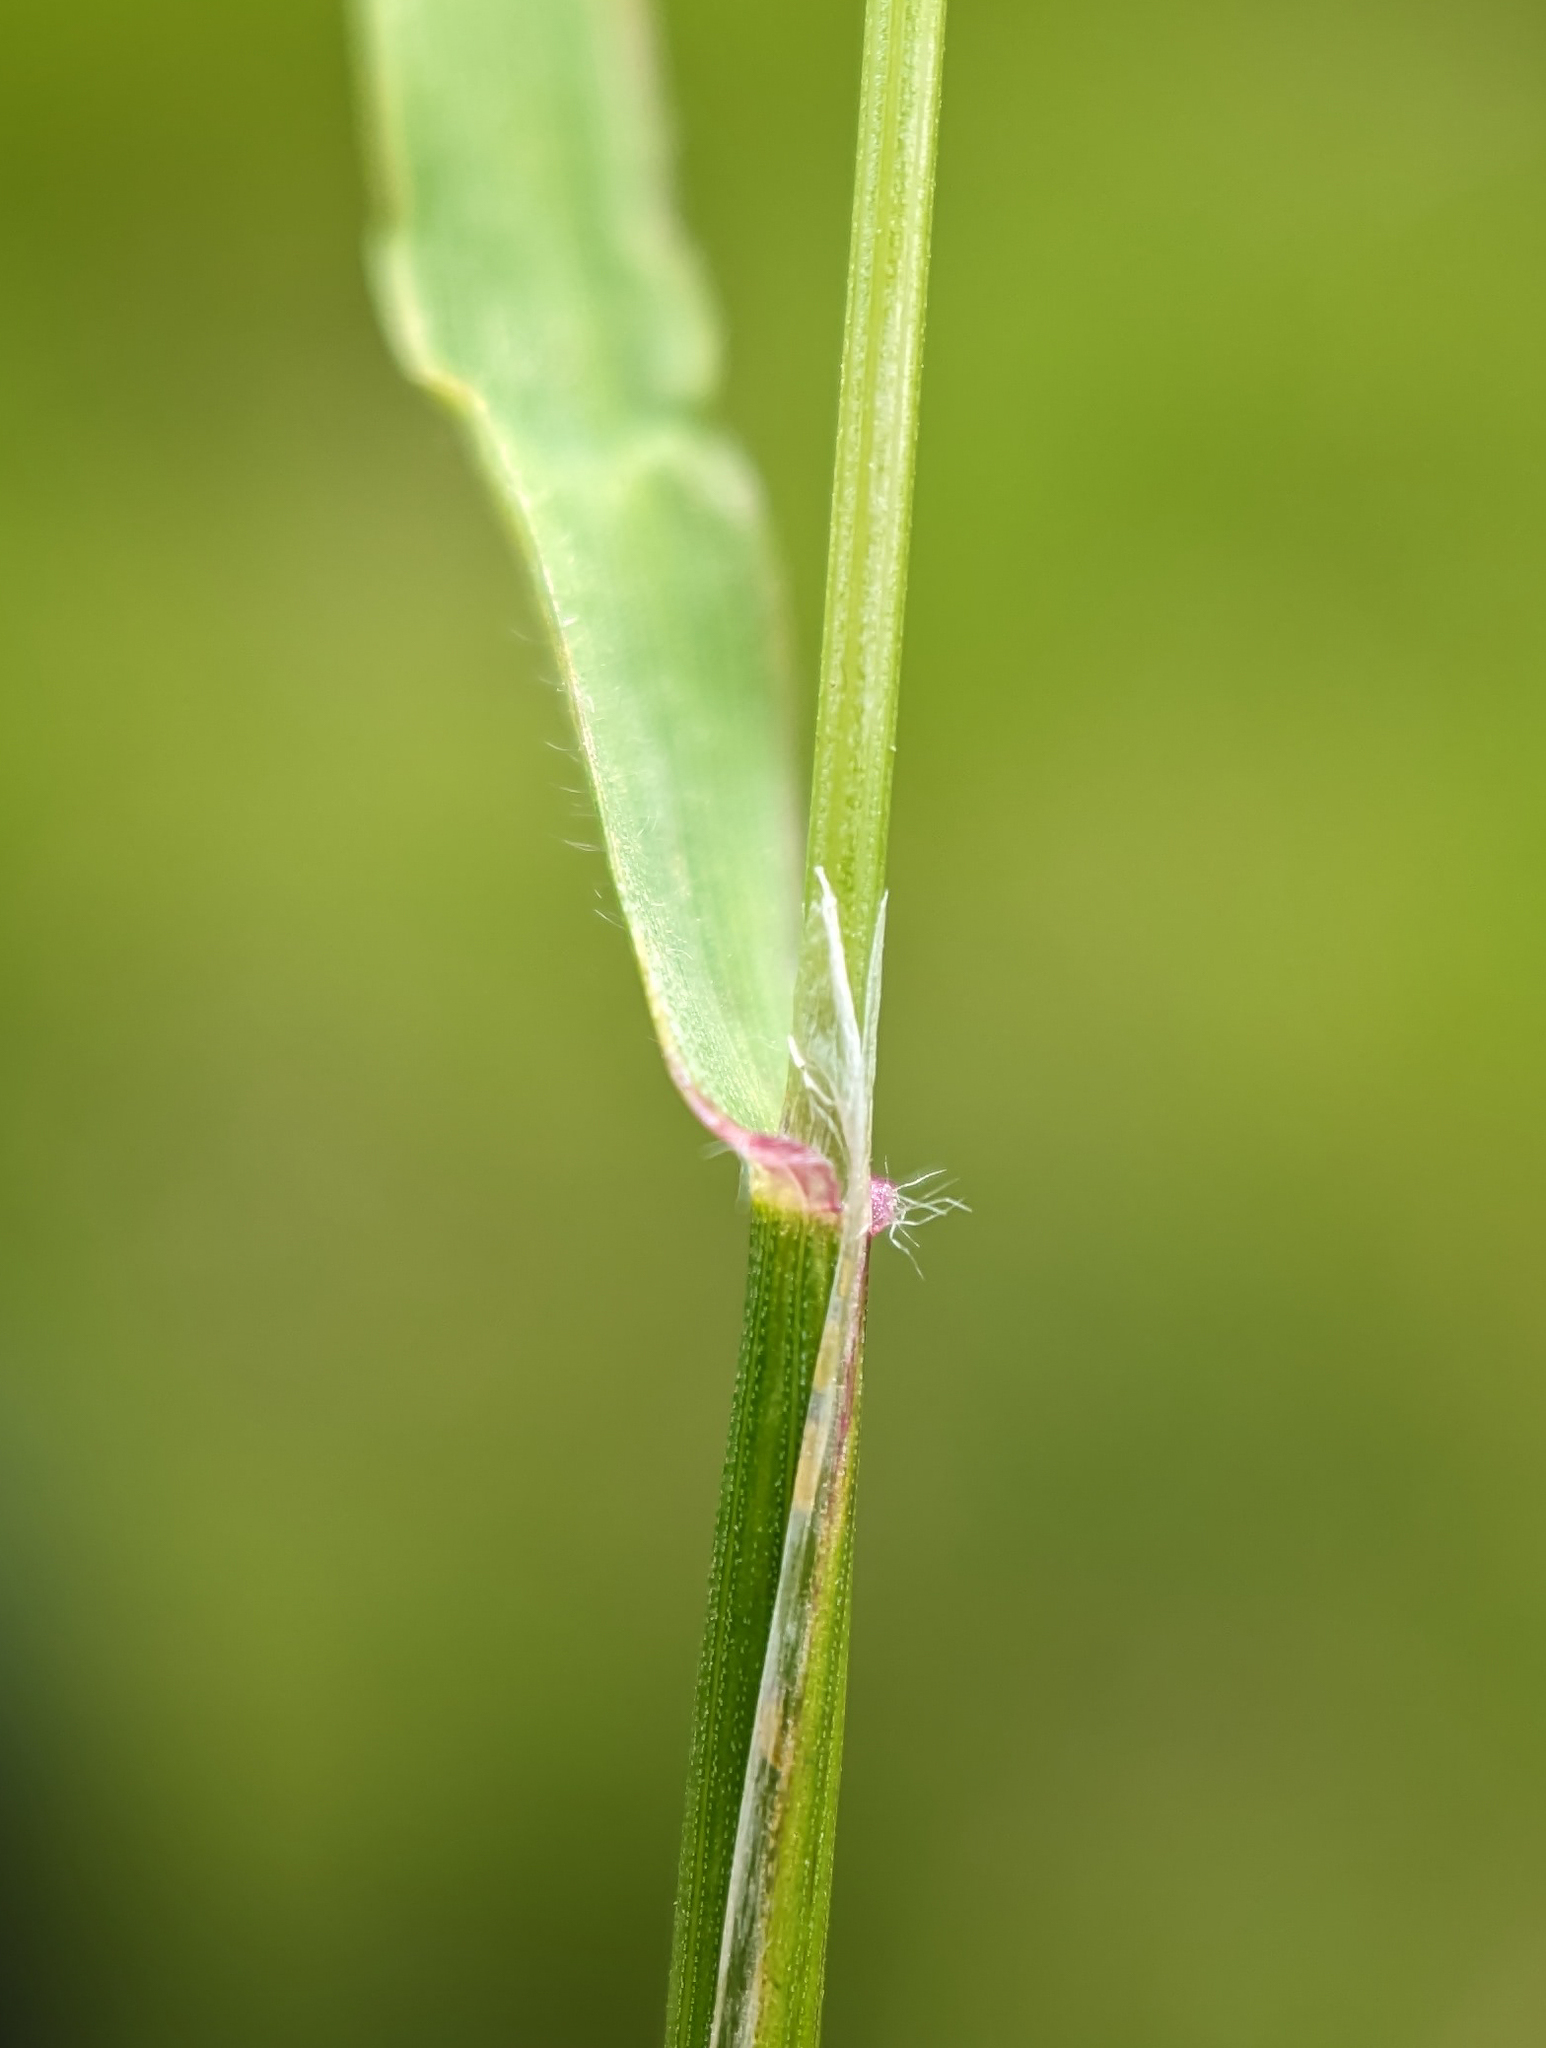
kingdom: Plantae
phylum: Tracheophyta
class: Liliopsida
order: Poales
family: Poaceae
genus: Anthoxanthum
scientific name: Anthoxanthum odoratum
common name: Sweet vernalgrass
